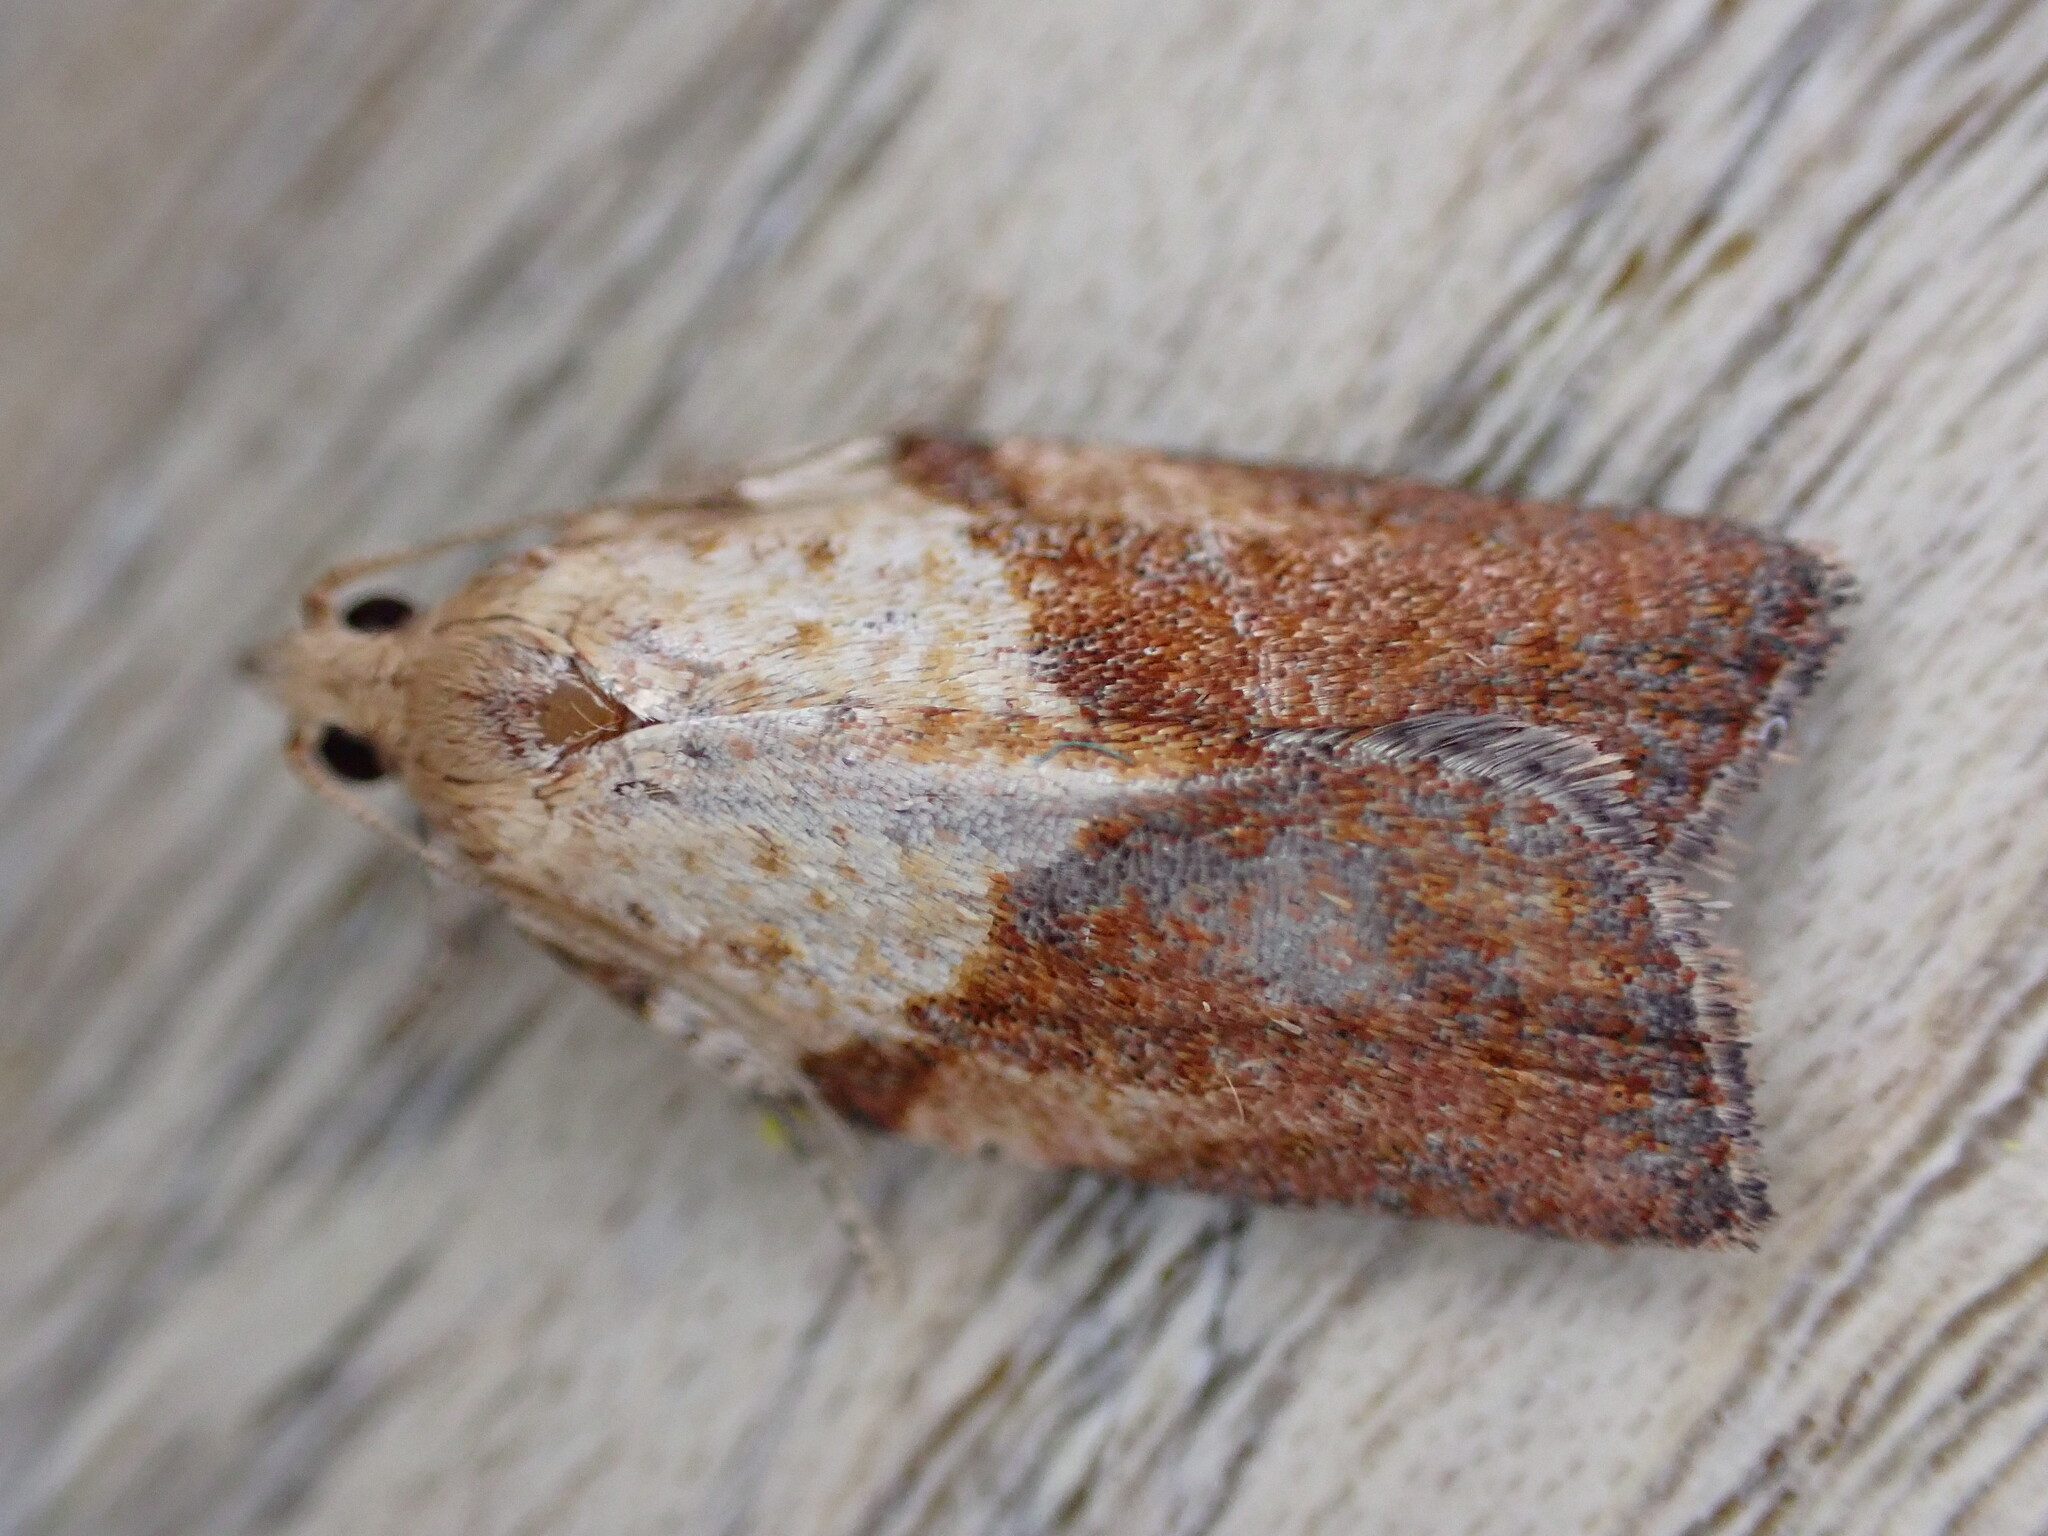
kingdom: Animalia
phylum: Arthropoda
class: Insecta
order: Lepidoptera
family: Tortricidae
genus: Epiphyas
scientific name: Epiphyas postvittana
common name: Light brown apple moth
